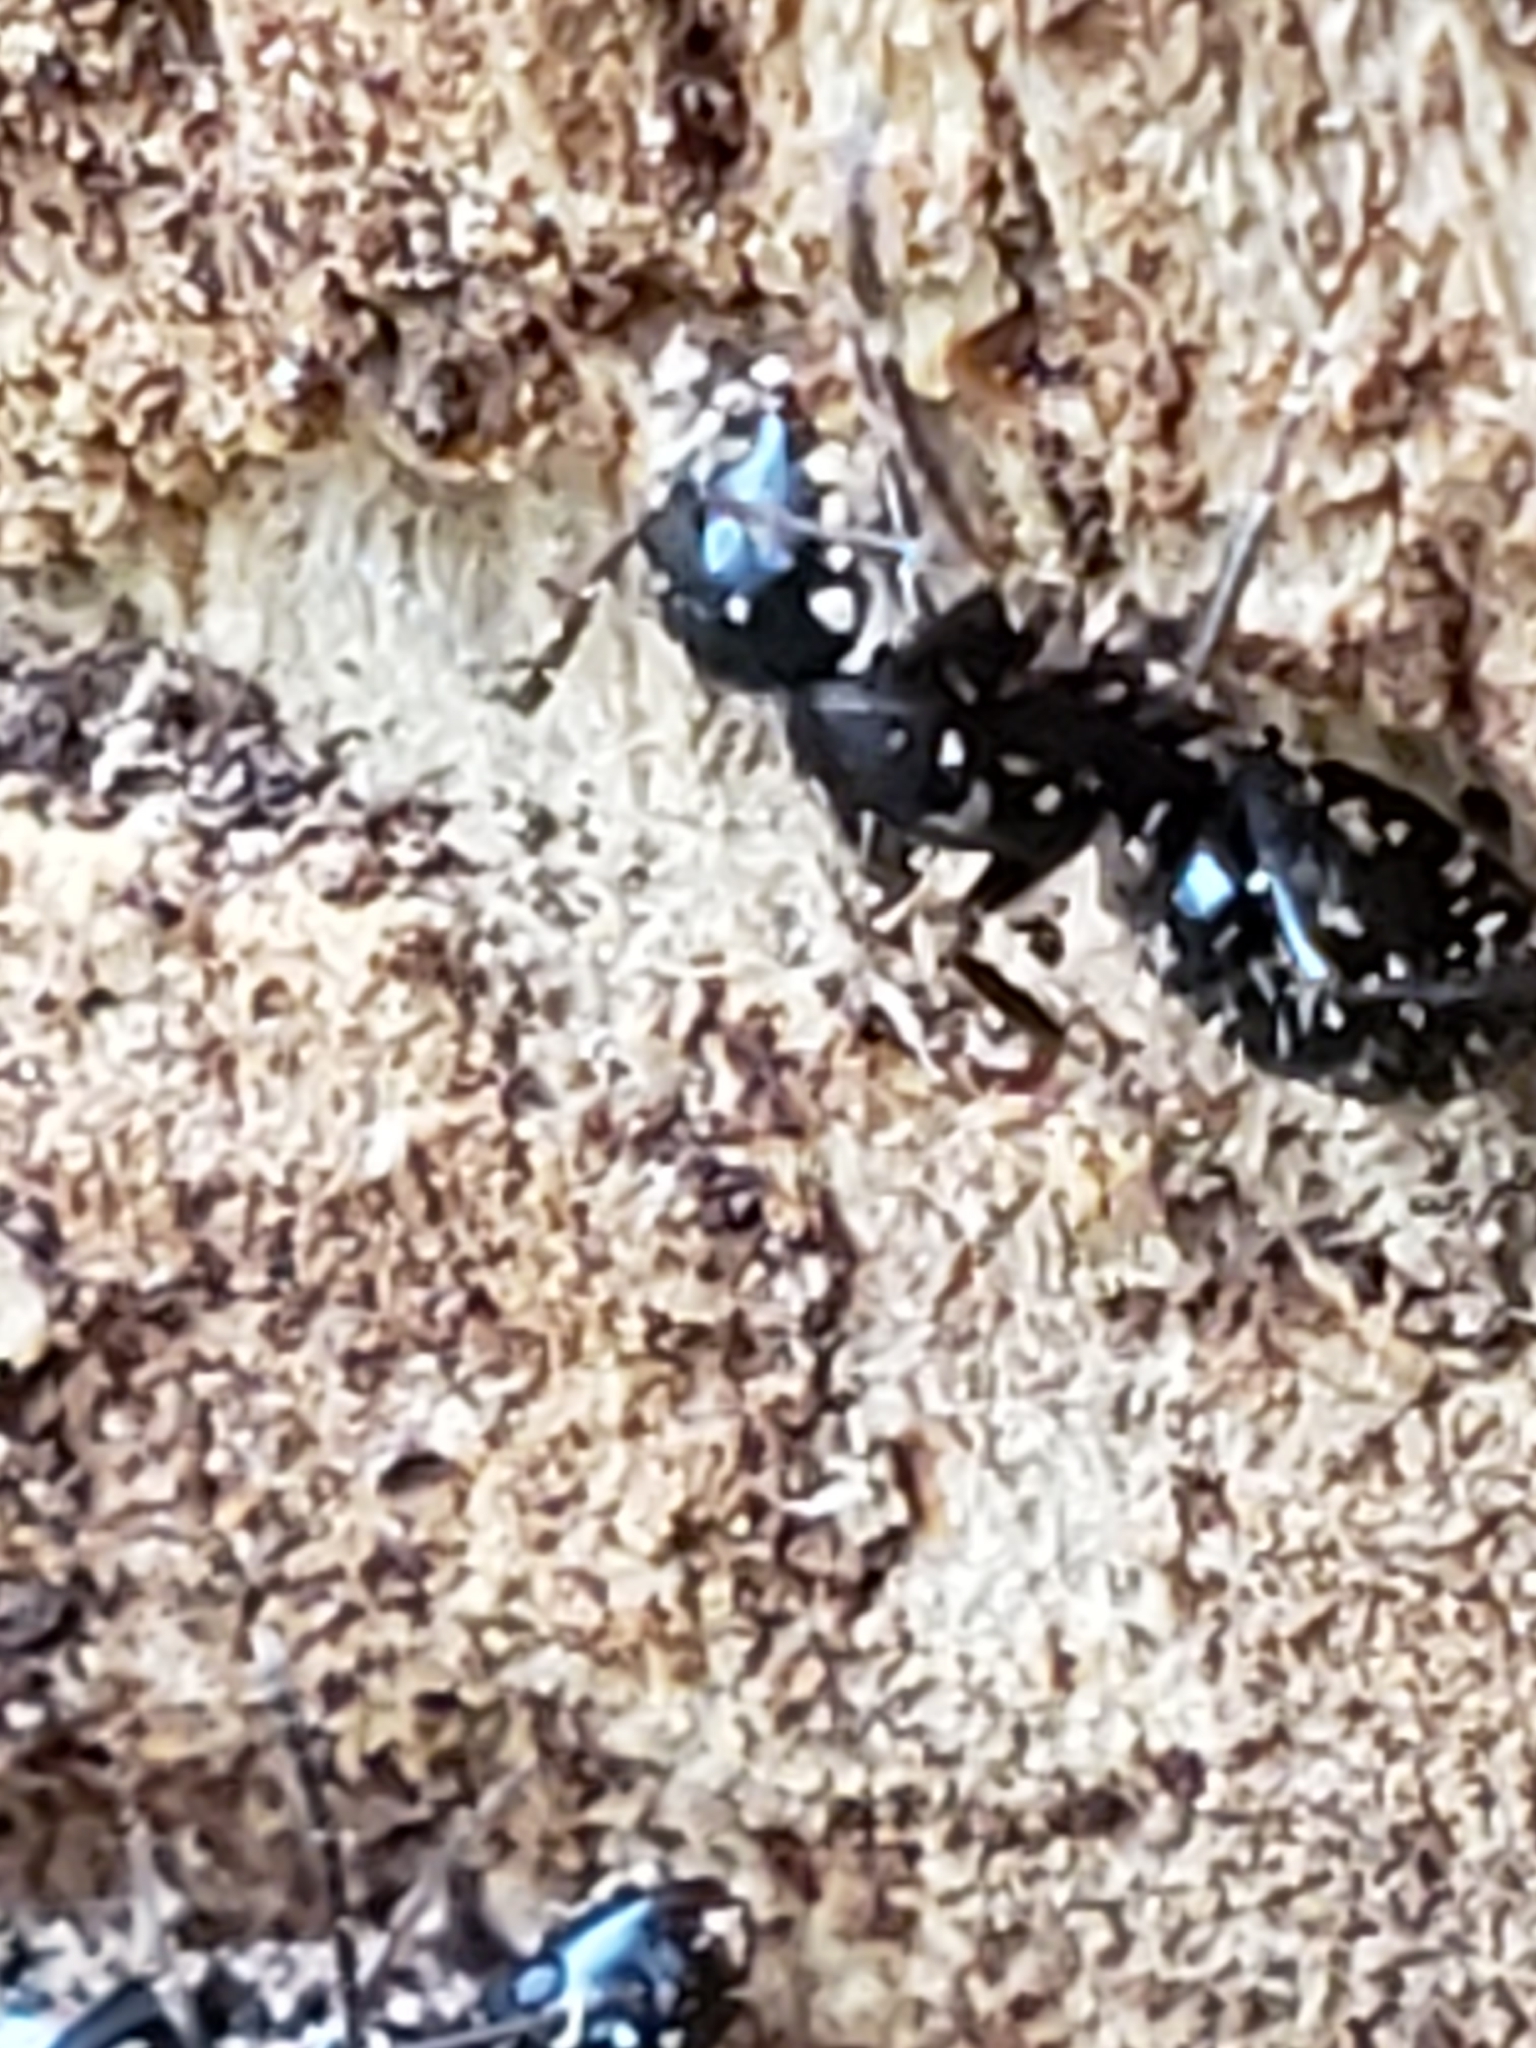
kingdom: Animalia
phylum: Arthropoda
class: Insecta
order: Hymenoptera
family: Formicidae
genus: Camponotus
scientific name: Camponotus pennsylvanicus
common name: Black carpenter ant
